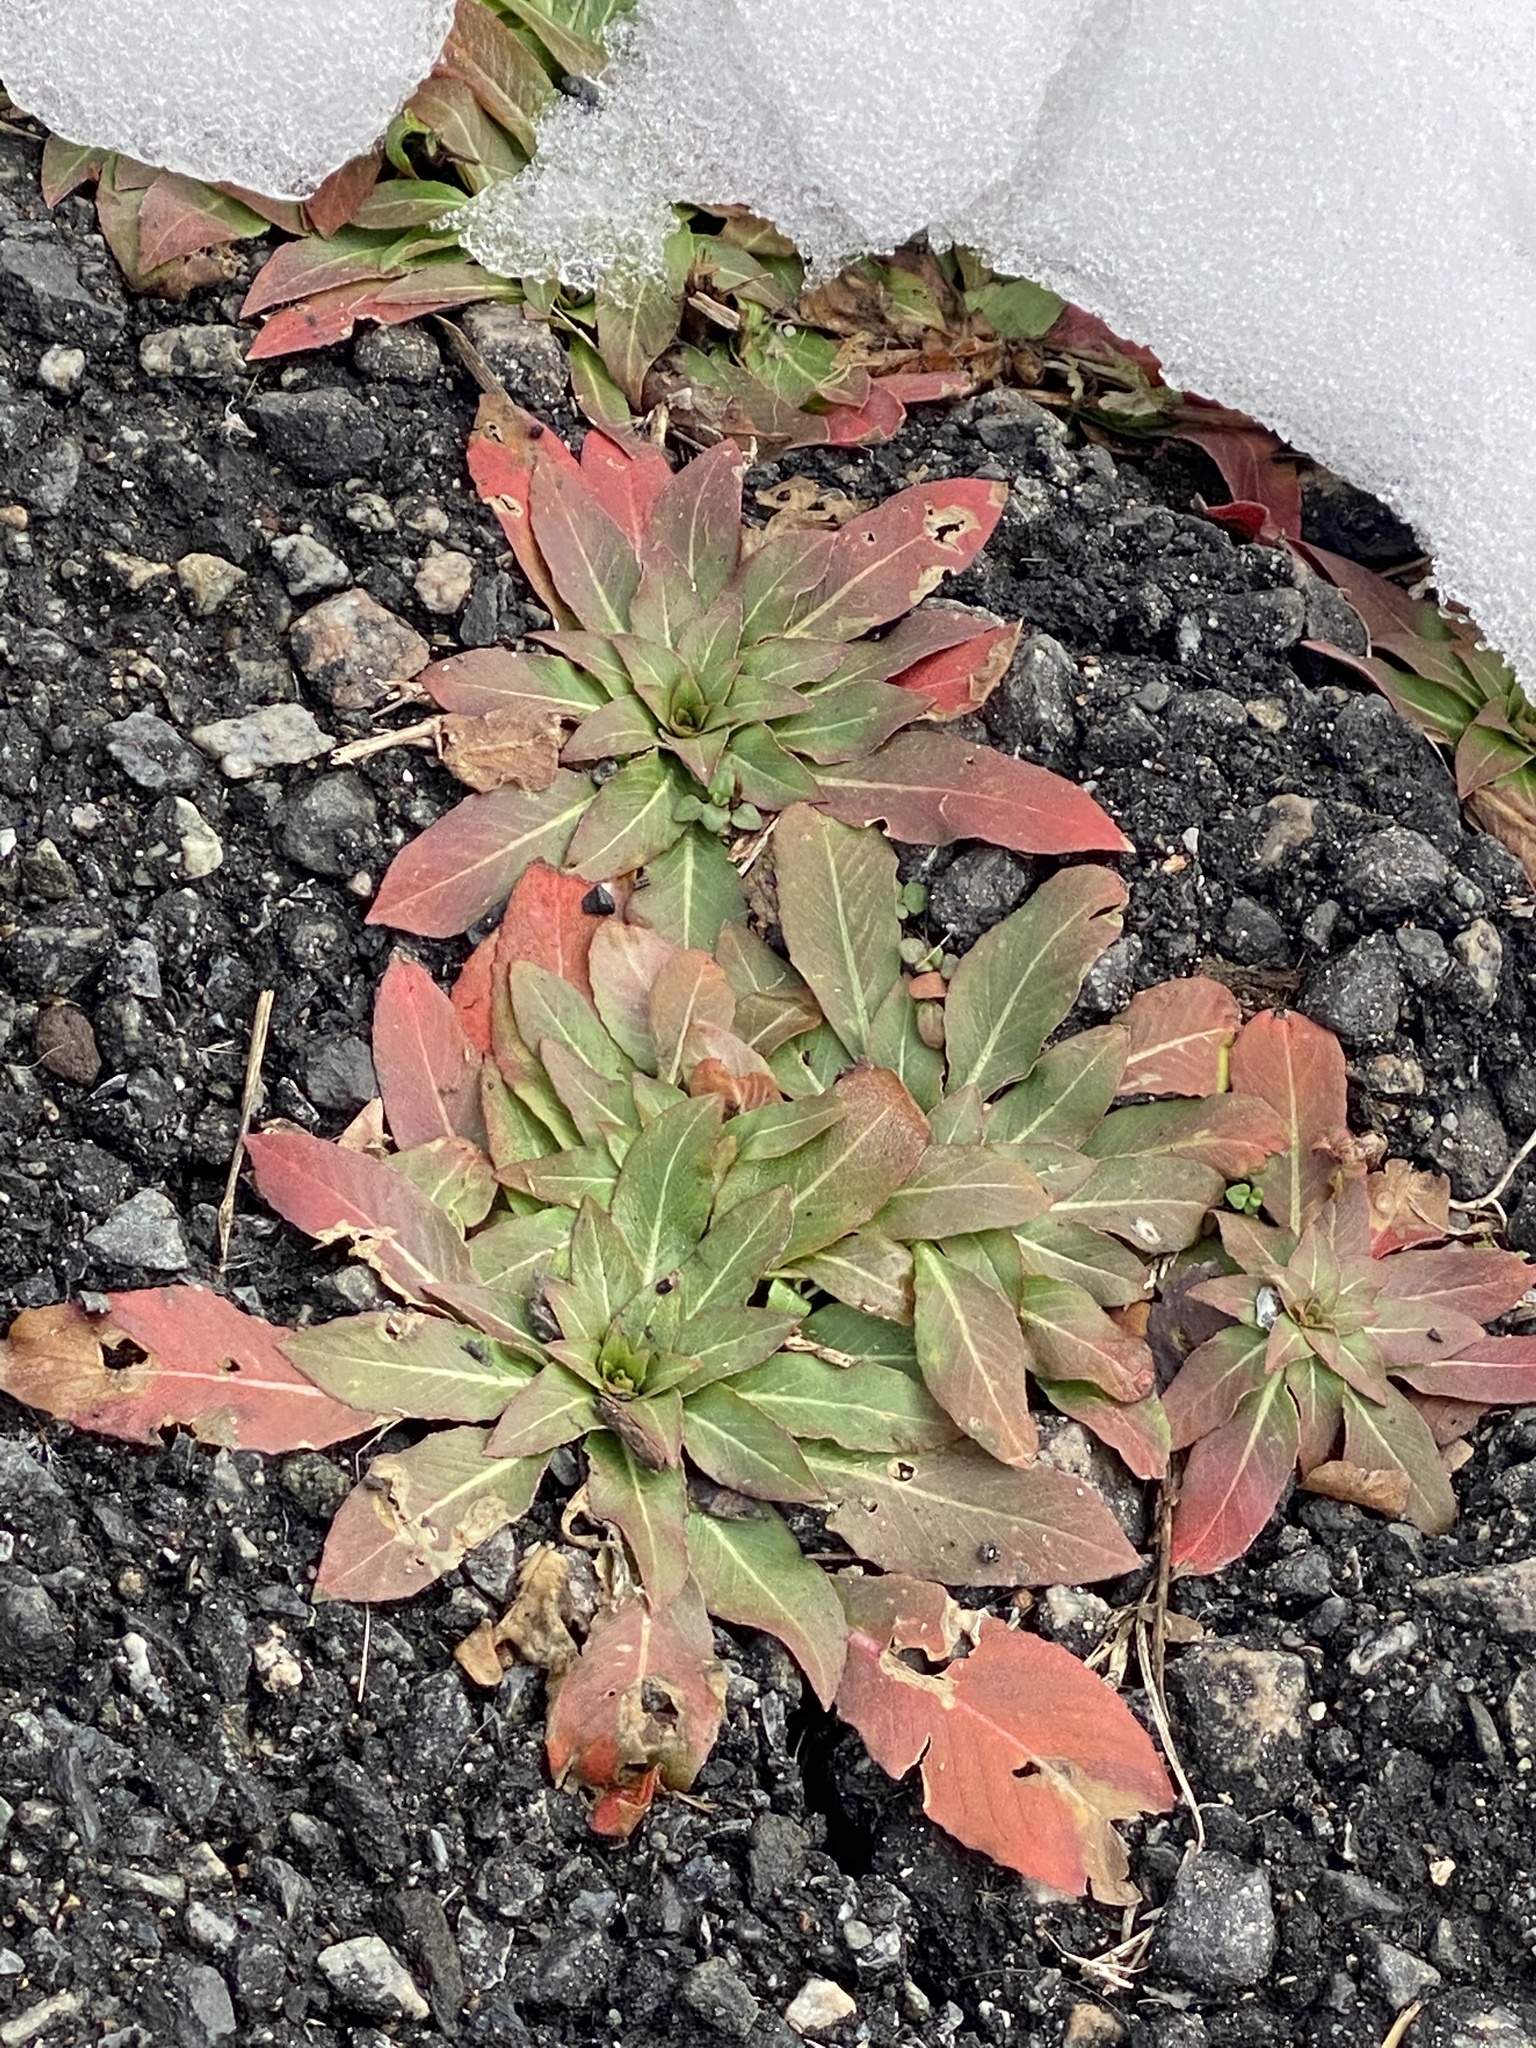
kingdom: Plantae
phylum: Tracheophyta
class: Magnoliopsida
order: Myrtales
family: Onagraceae
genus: Oenothera
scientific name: Oenothera biennis
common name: Common evening-primrose
